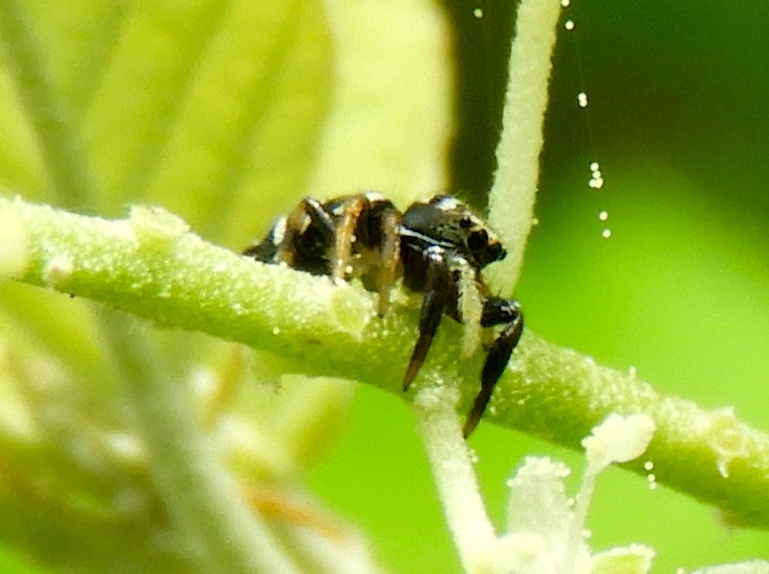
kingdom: Animalia
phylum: Arthropoda
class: Arachnida
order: Araneae
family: Salticidae
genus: Sassacus
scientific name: Sassacus
